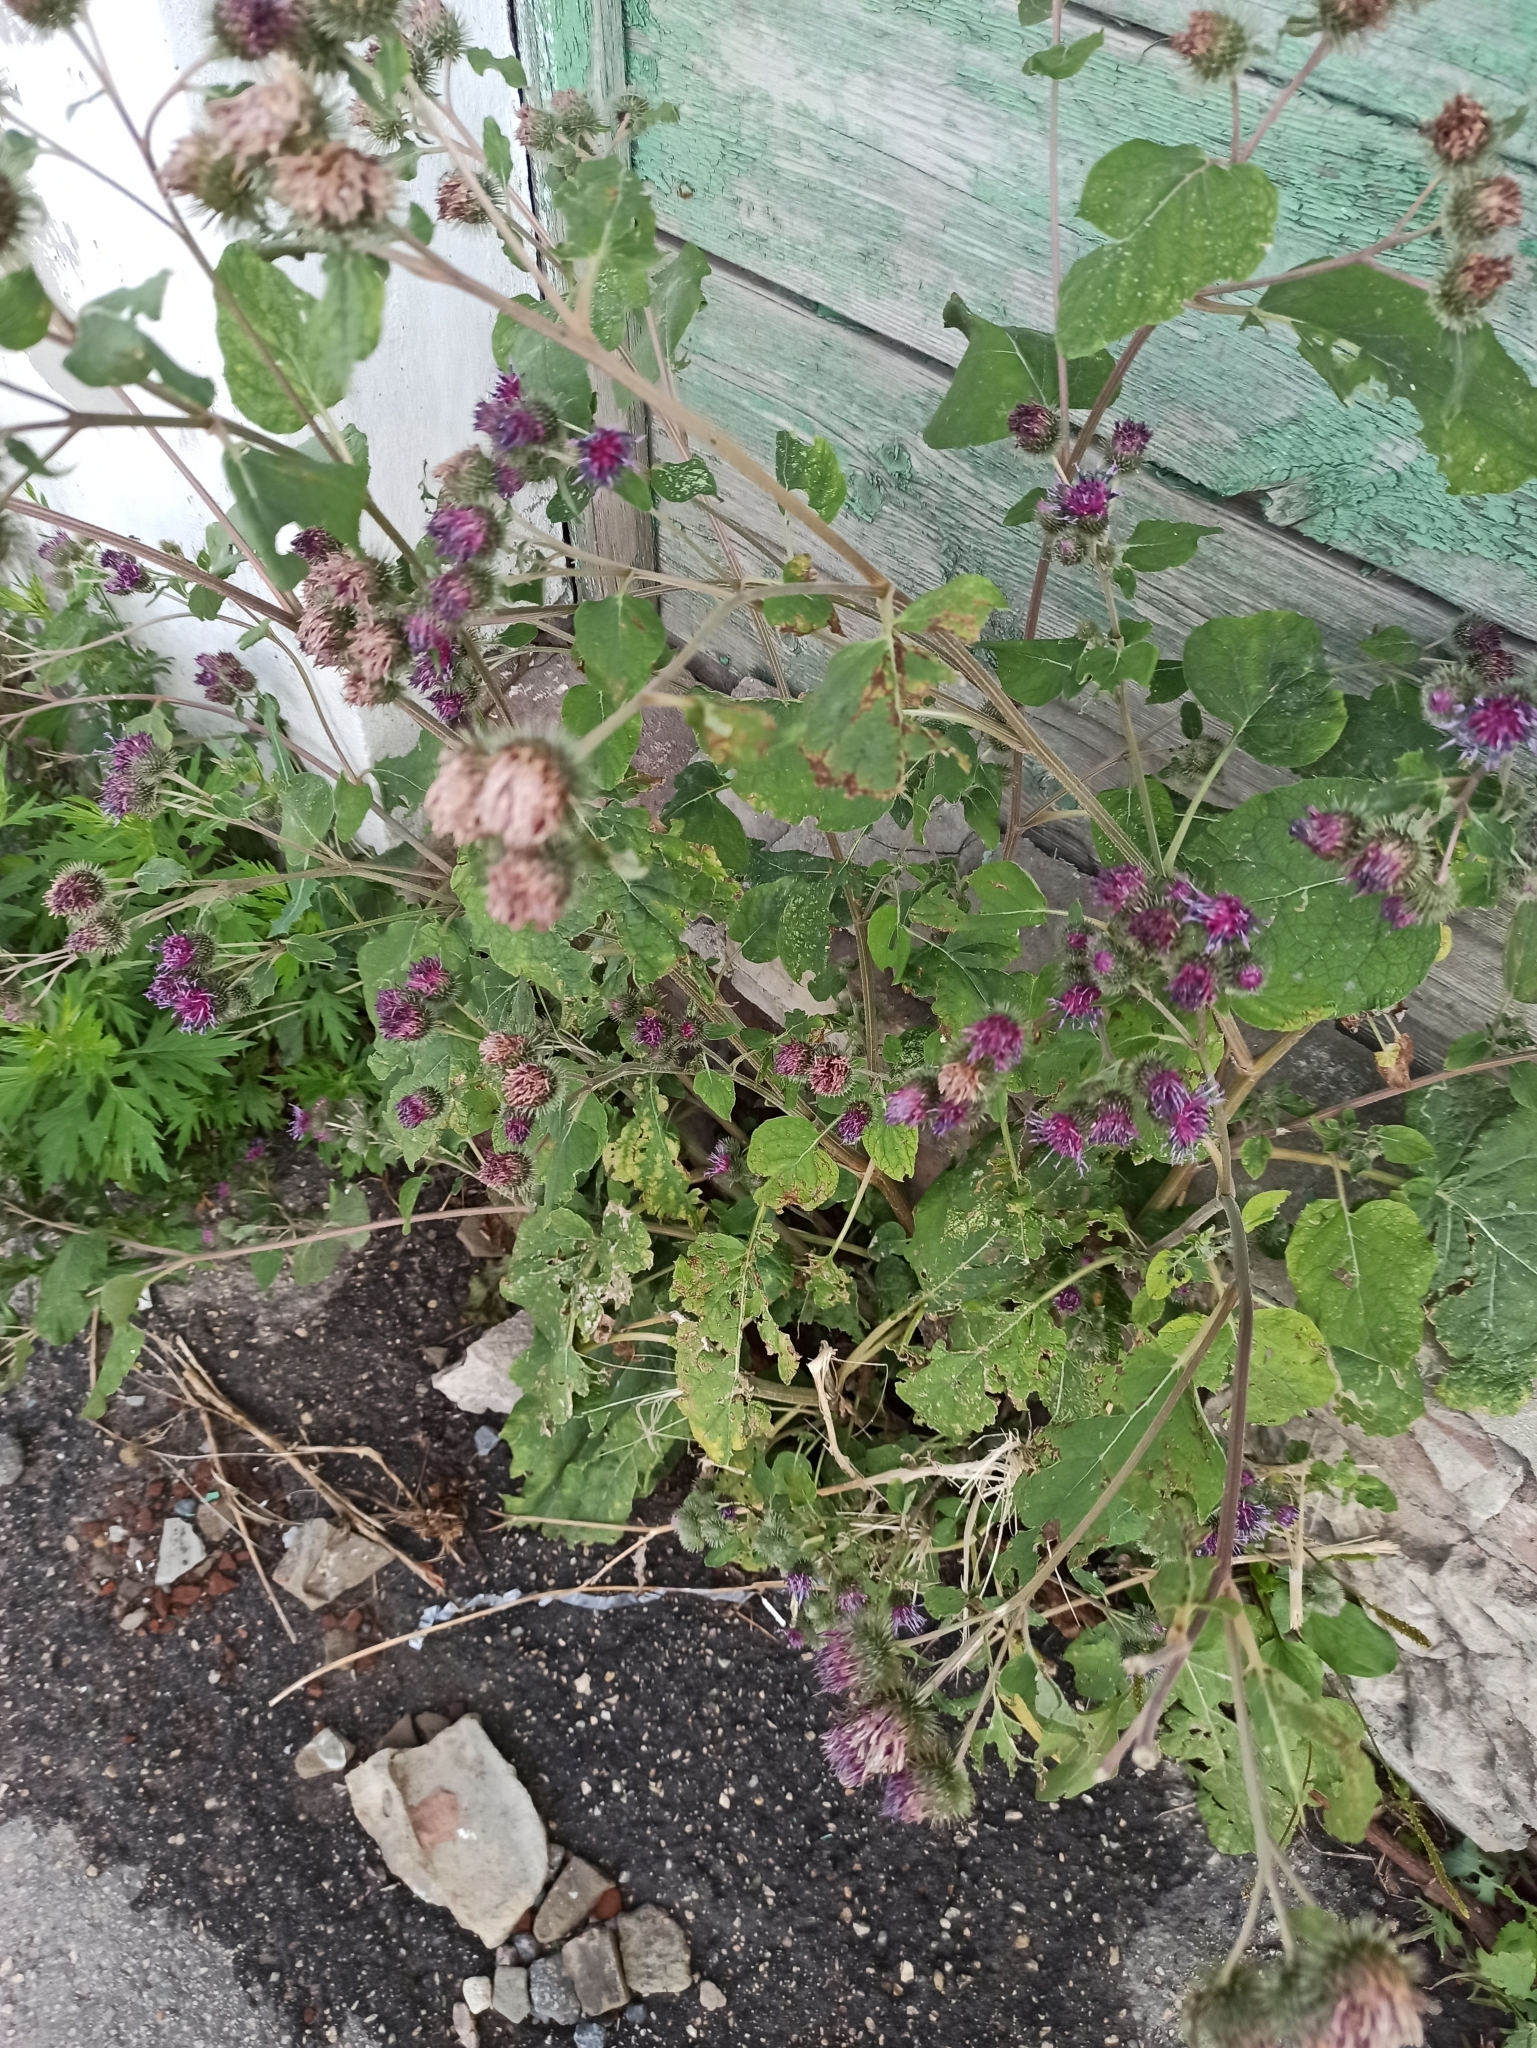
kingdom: Plantae
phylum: Tracheophyta
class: Magnoliopsida
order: Asterales
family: Asteraceae
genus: Arctium
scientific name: Arctium minus
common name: Lesser burdock
